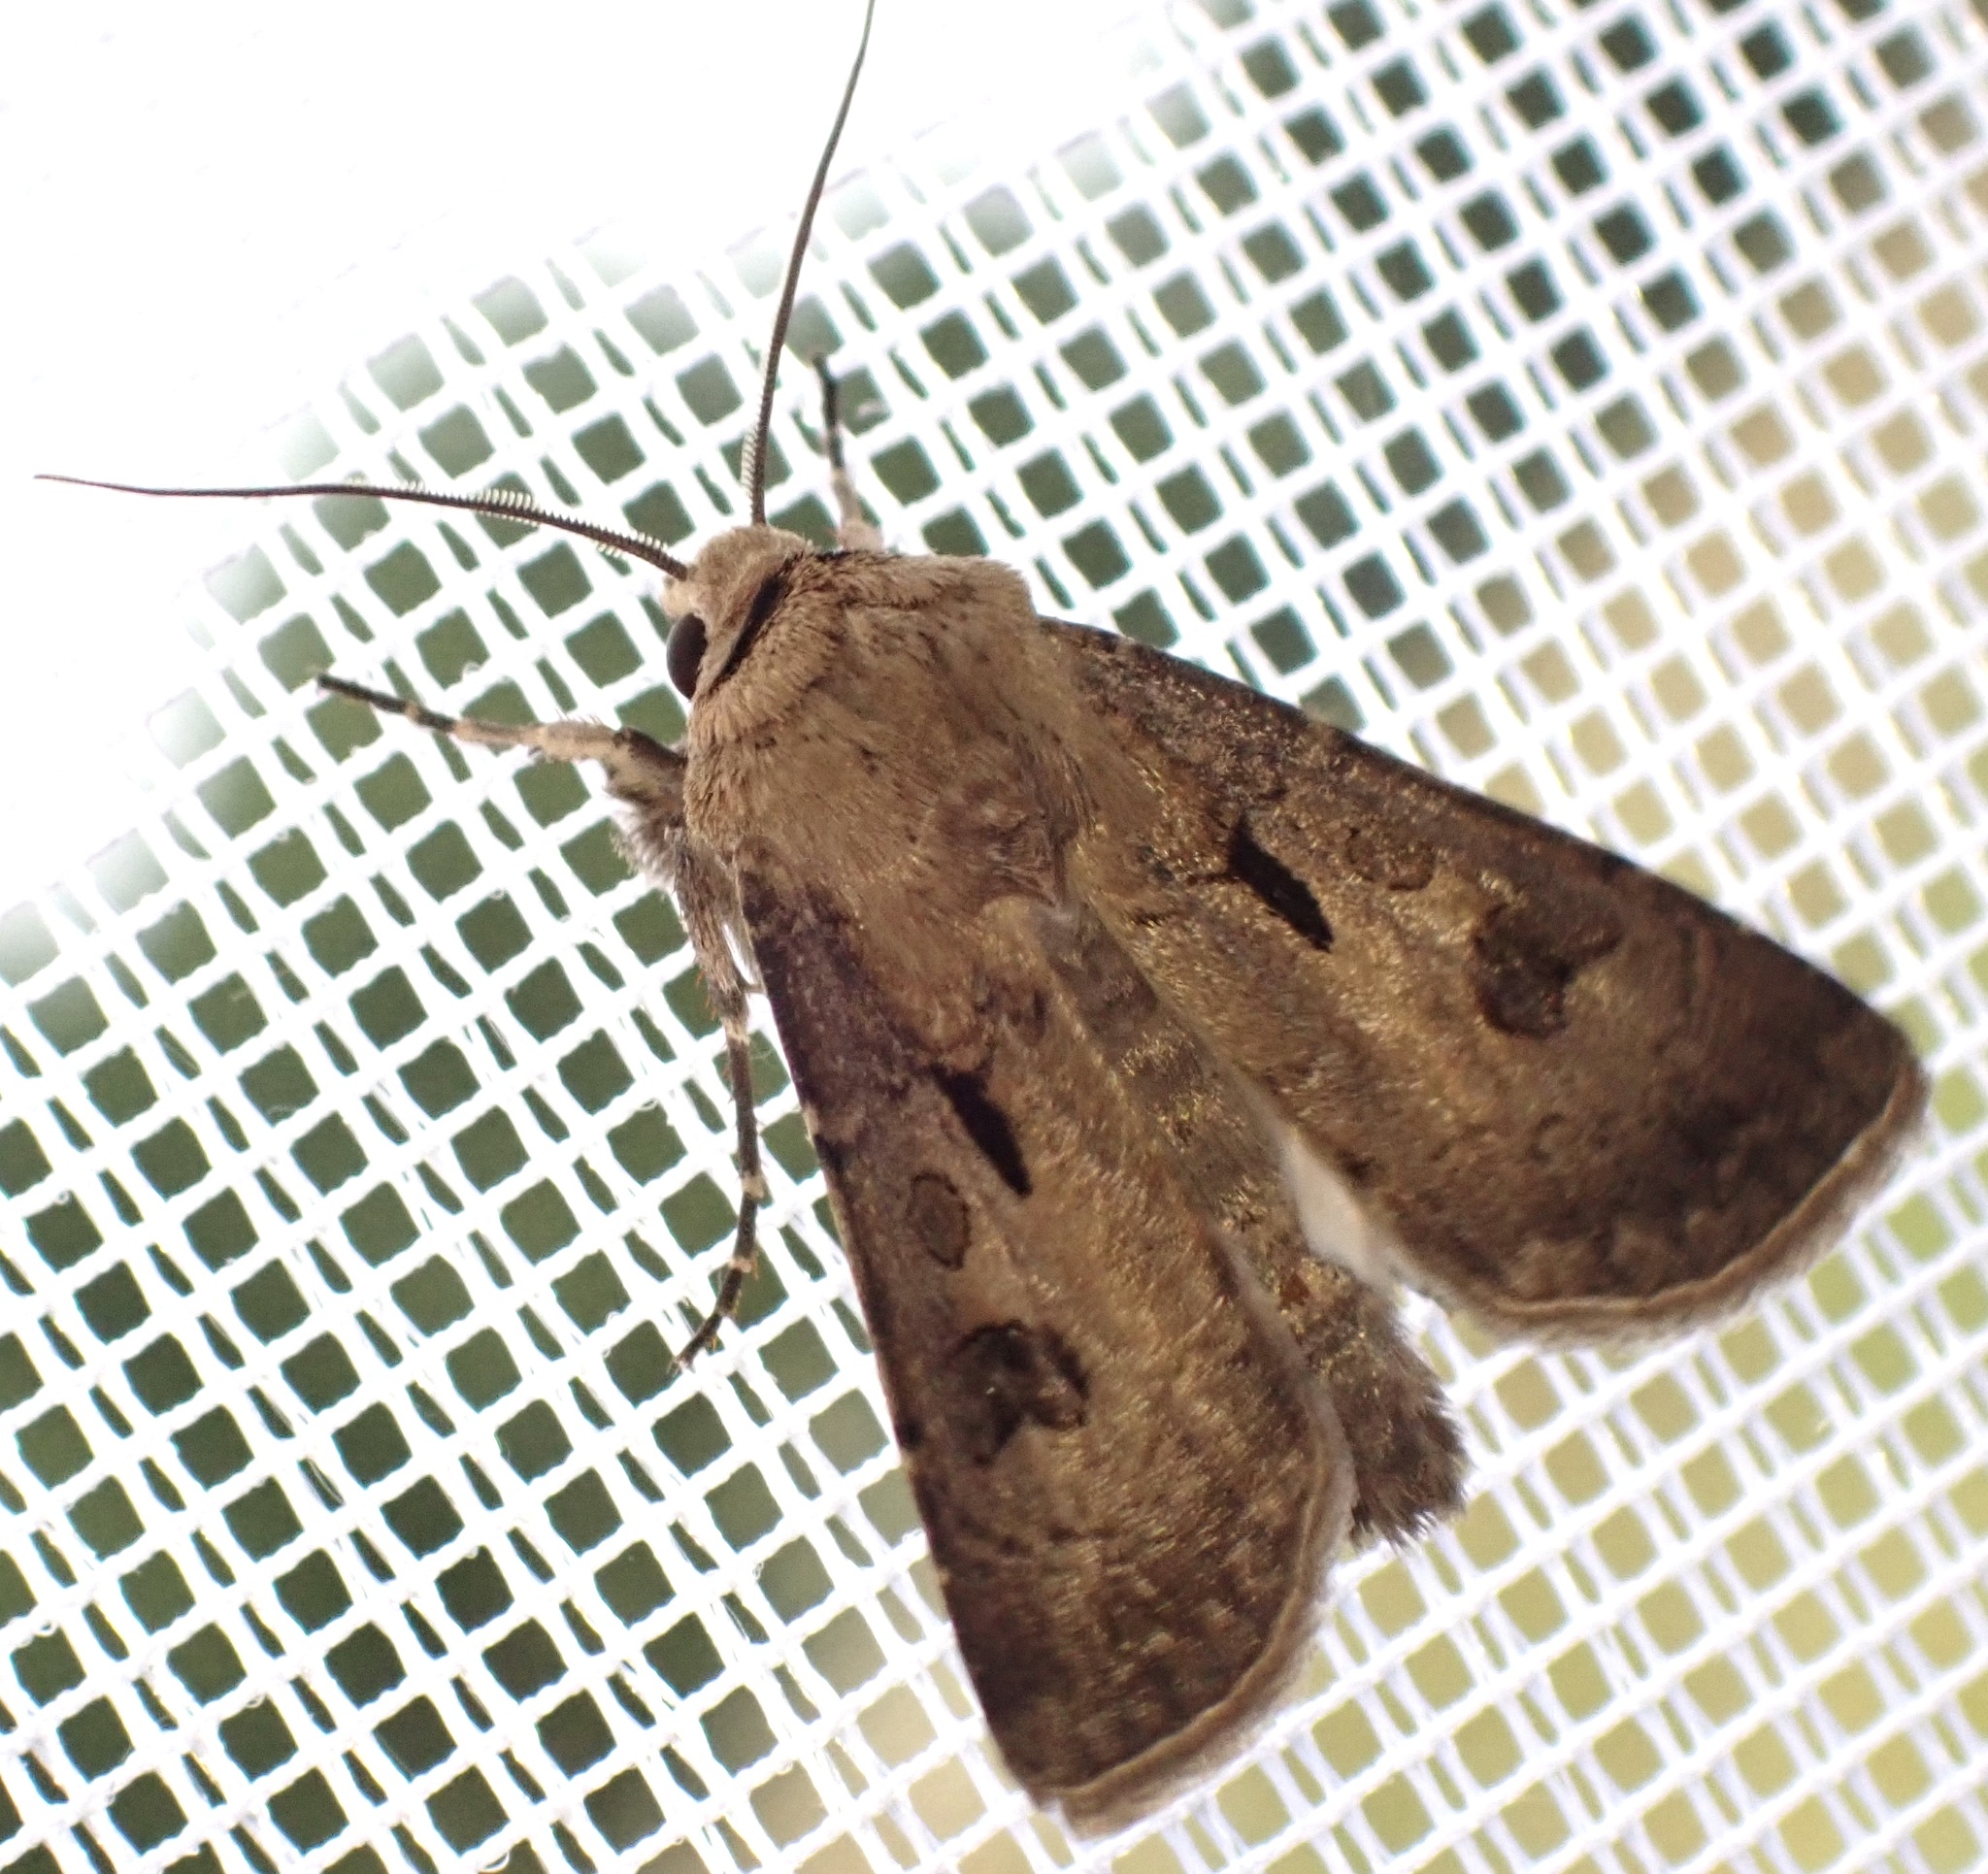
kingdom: Animalia
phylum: Arthropoda
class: Insecta
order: Lepidoptera
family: Noctuidae
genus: Agrotis
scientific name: Agrotis exclamationis
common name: Heart and dart
